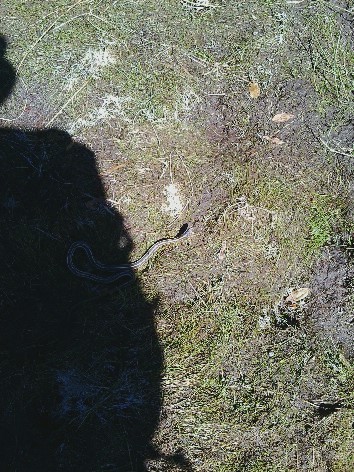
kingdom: Animalia
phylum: Chordata
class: Squamata
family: Colubridae
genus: Thamnophis
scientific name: Thamnophis elegans
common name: Western terrestrial garter snake
